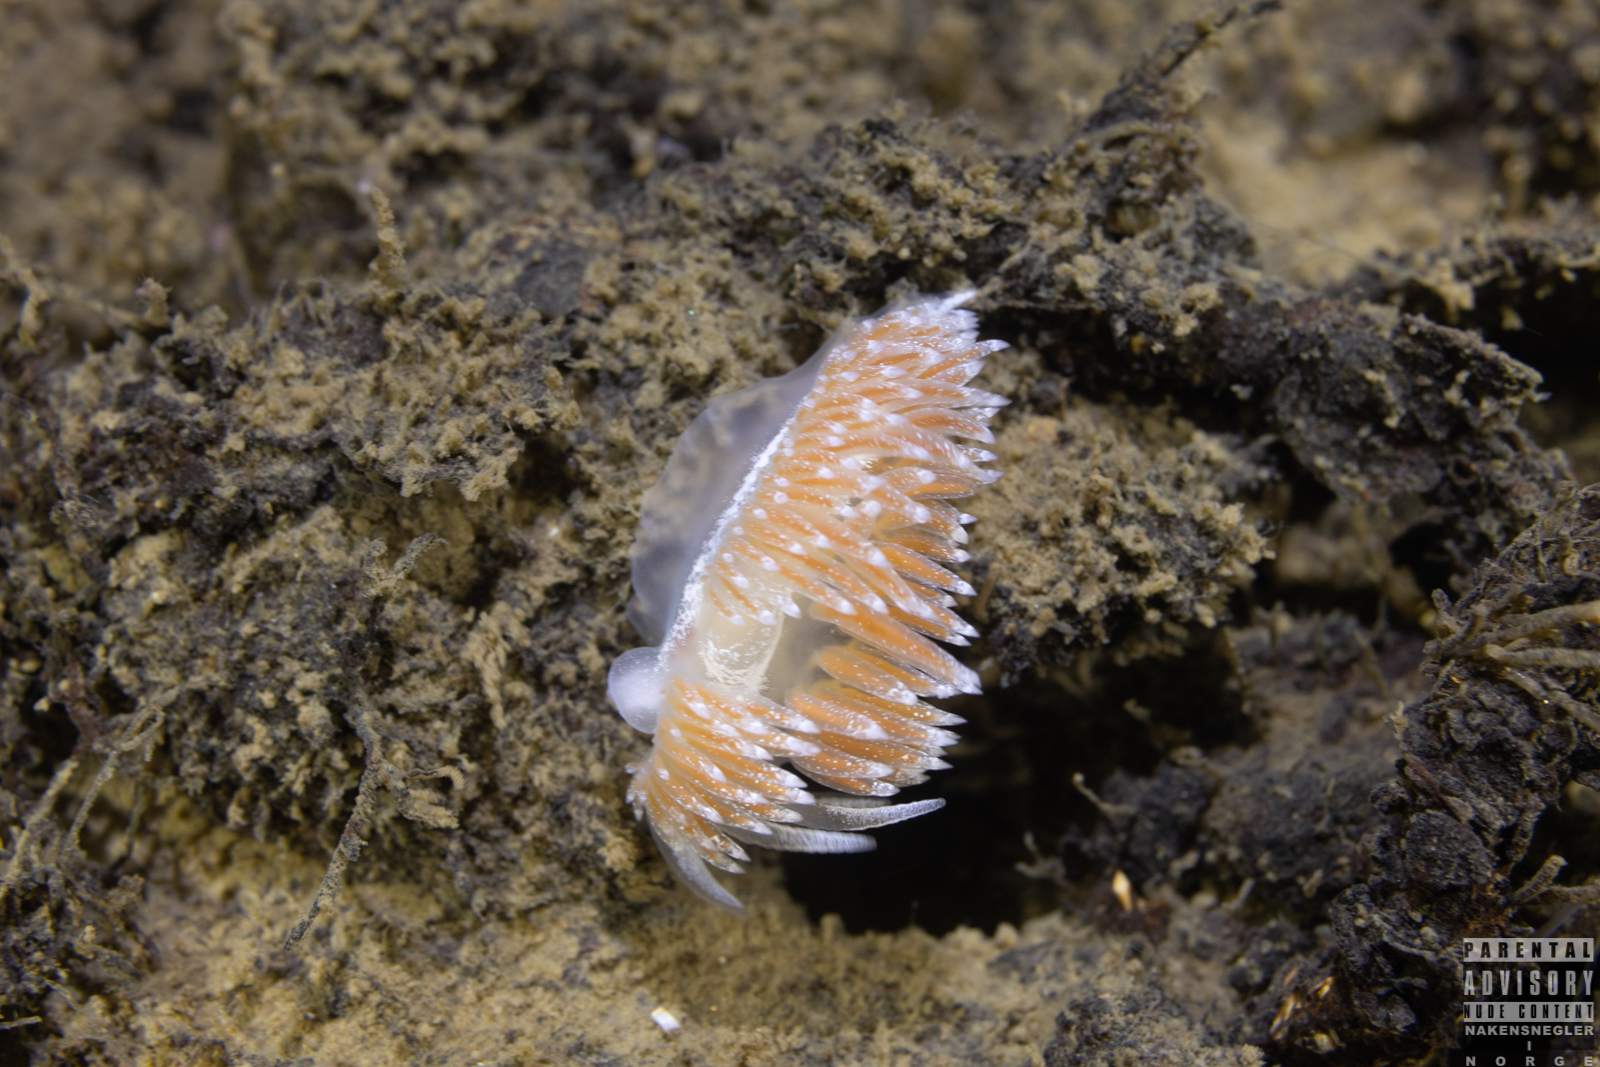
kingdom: Animalia
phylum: Mollusca
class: Gastropoda
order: Nudibranchia
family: Coryphellidae
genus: Coryphella
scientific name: Coryphella monicae
